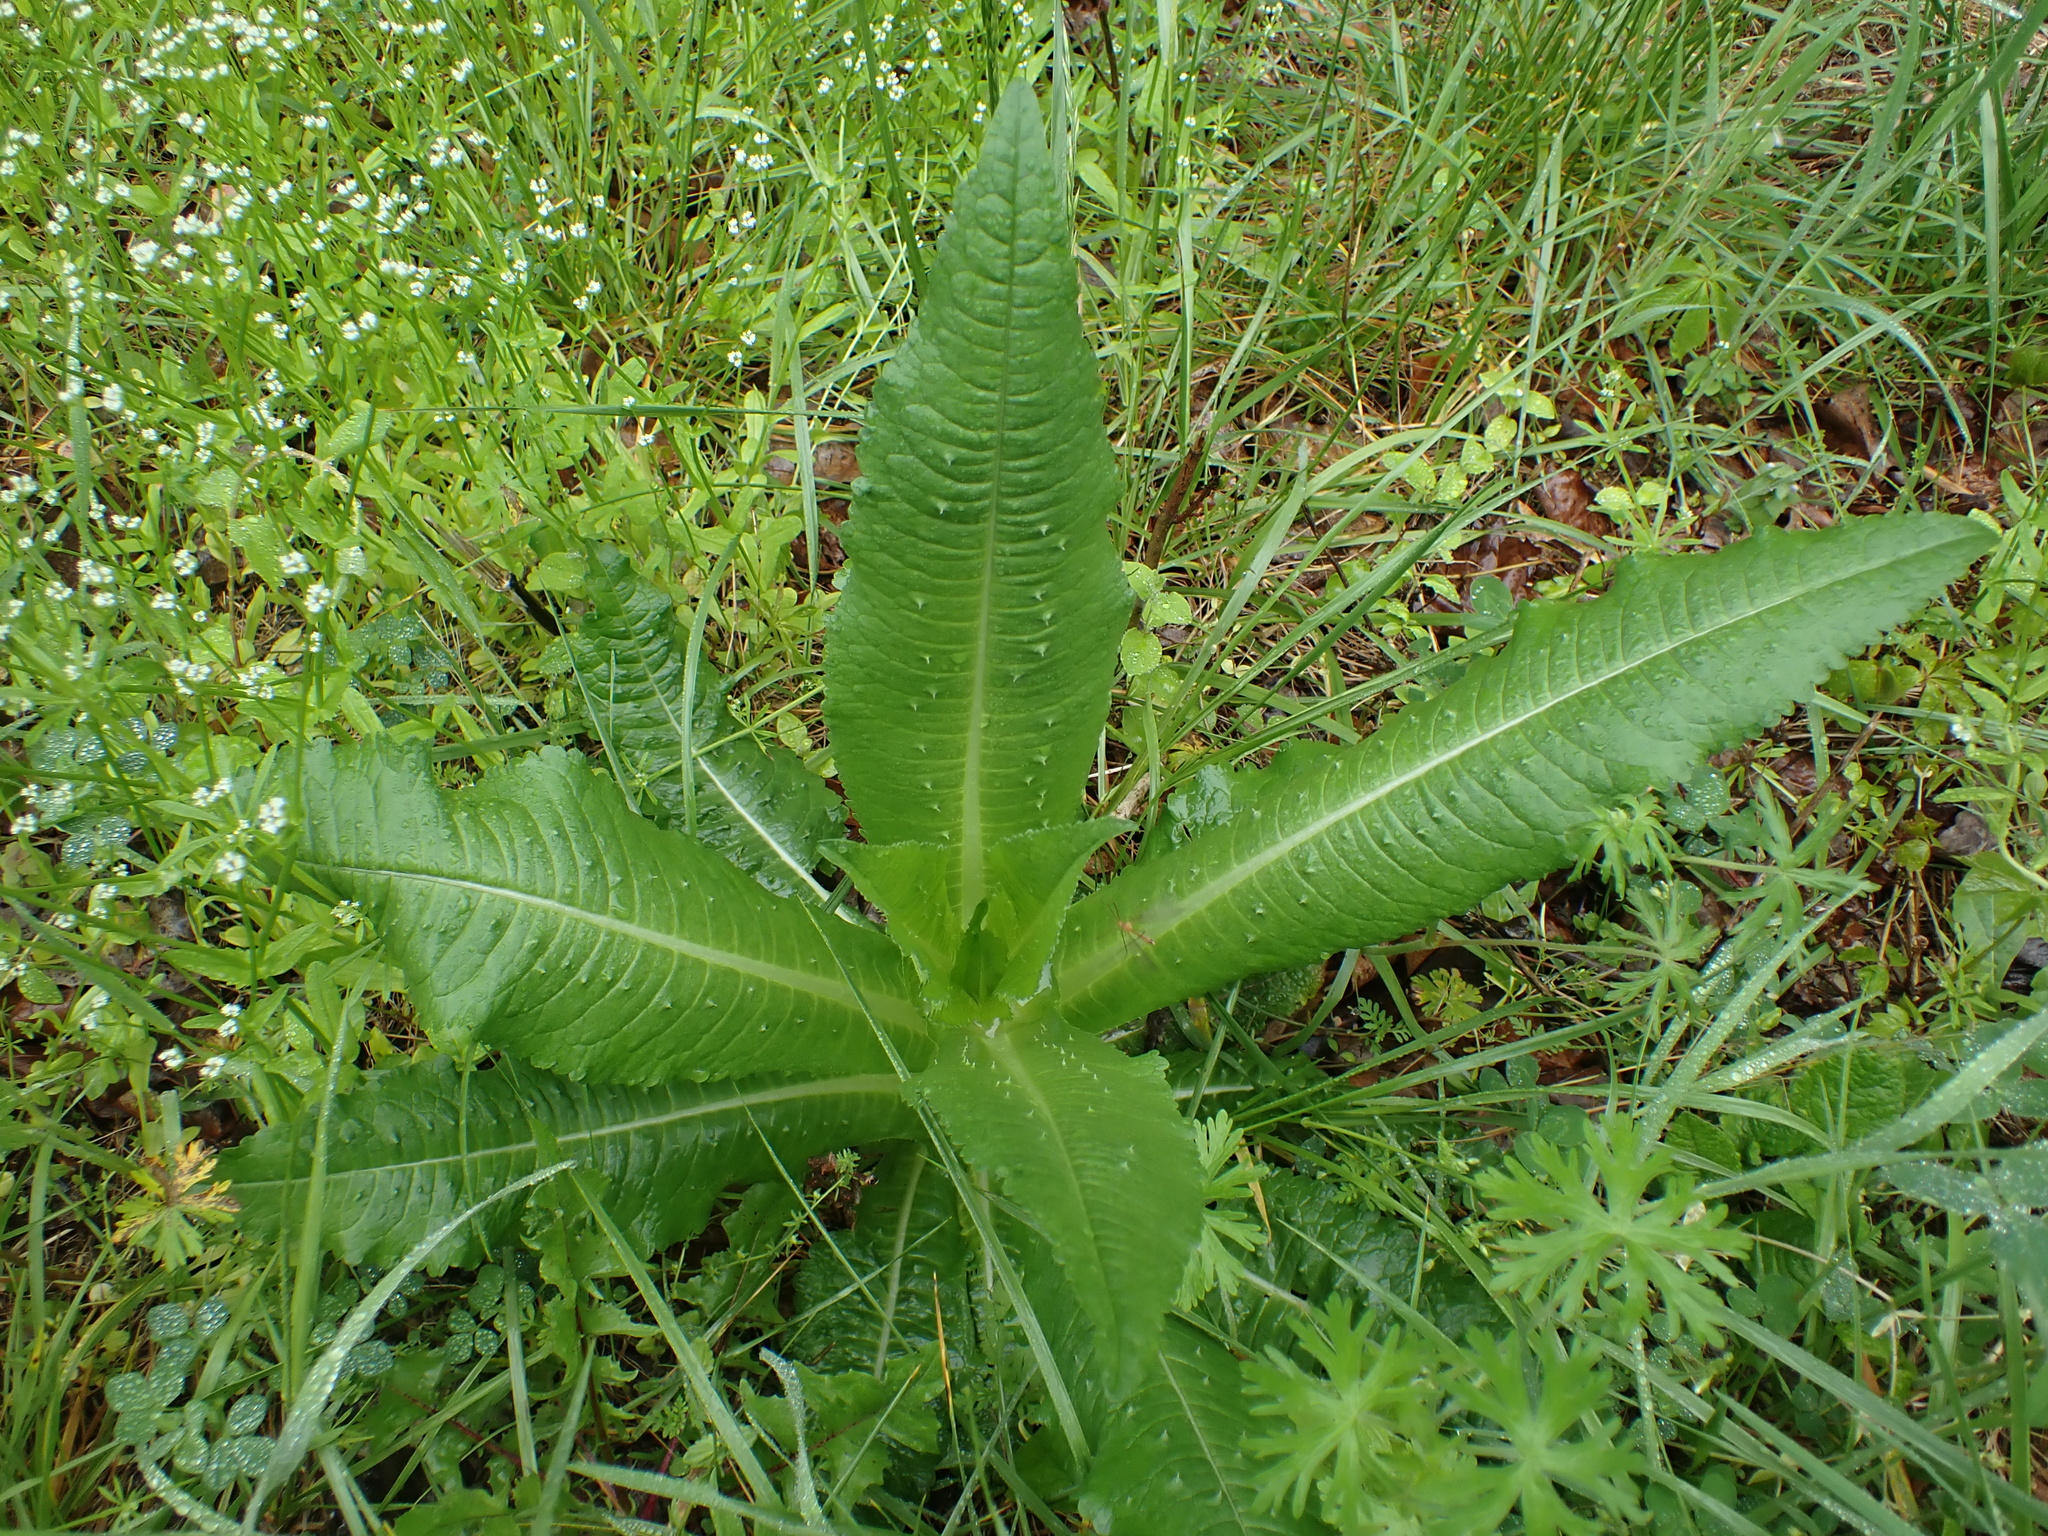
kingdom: Plantae
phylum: Tracheophyta
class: Magnoliopsida
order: Dipsacales
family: Caprifoliaceae
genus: Dipsacus
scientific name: Dipsacus fullonum
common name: Teasel
